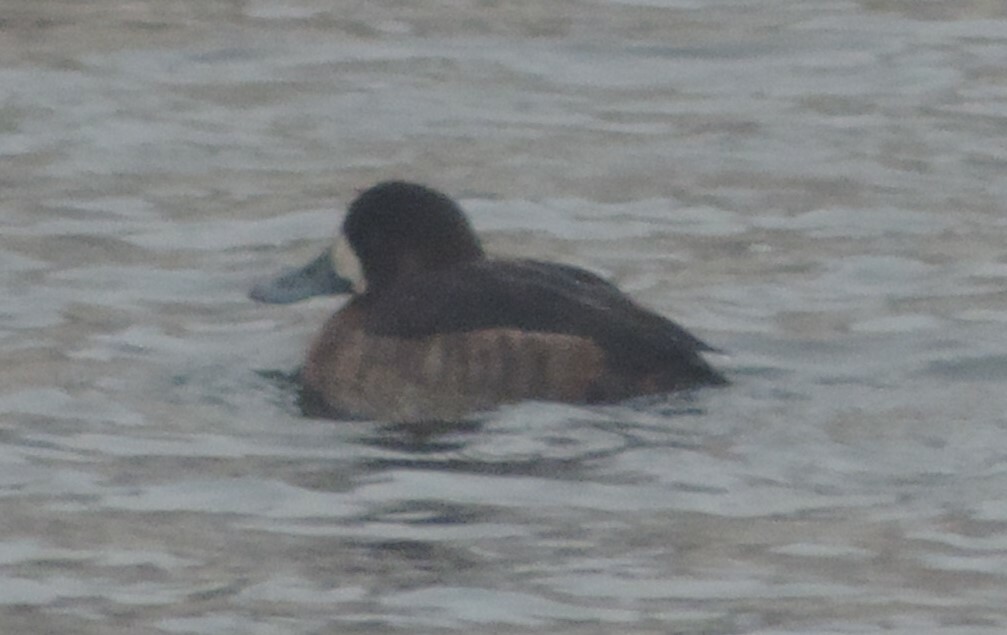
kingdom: Animalia
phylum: Chordata
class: Aves
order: Anseriformes
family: Anatidae
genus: Aythya
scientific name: Aythya marila
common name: Greater scaup
